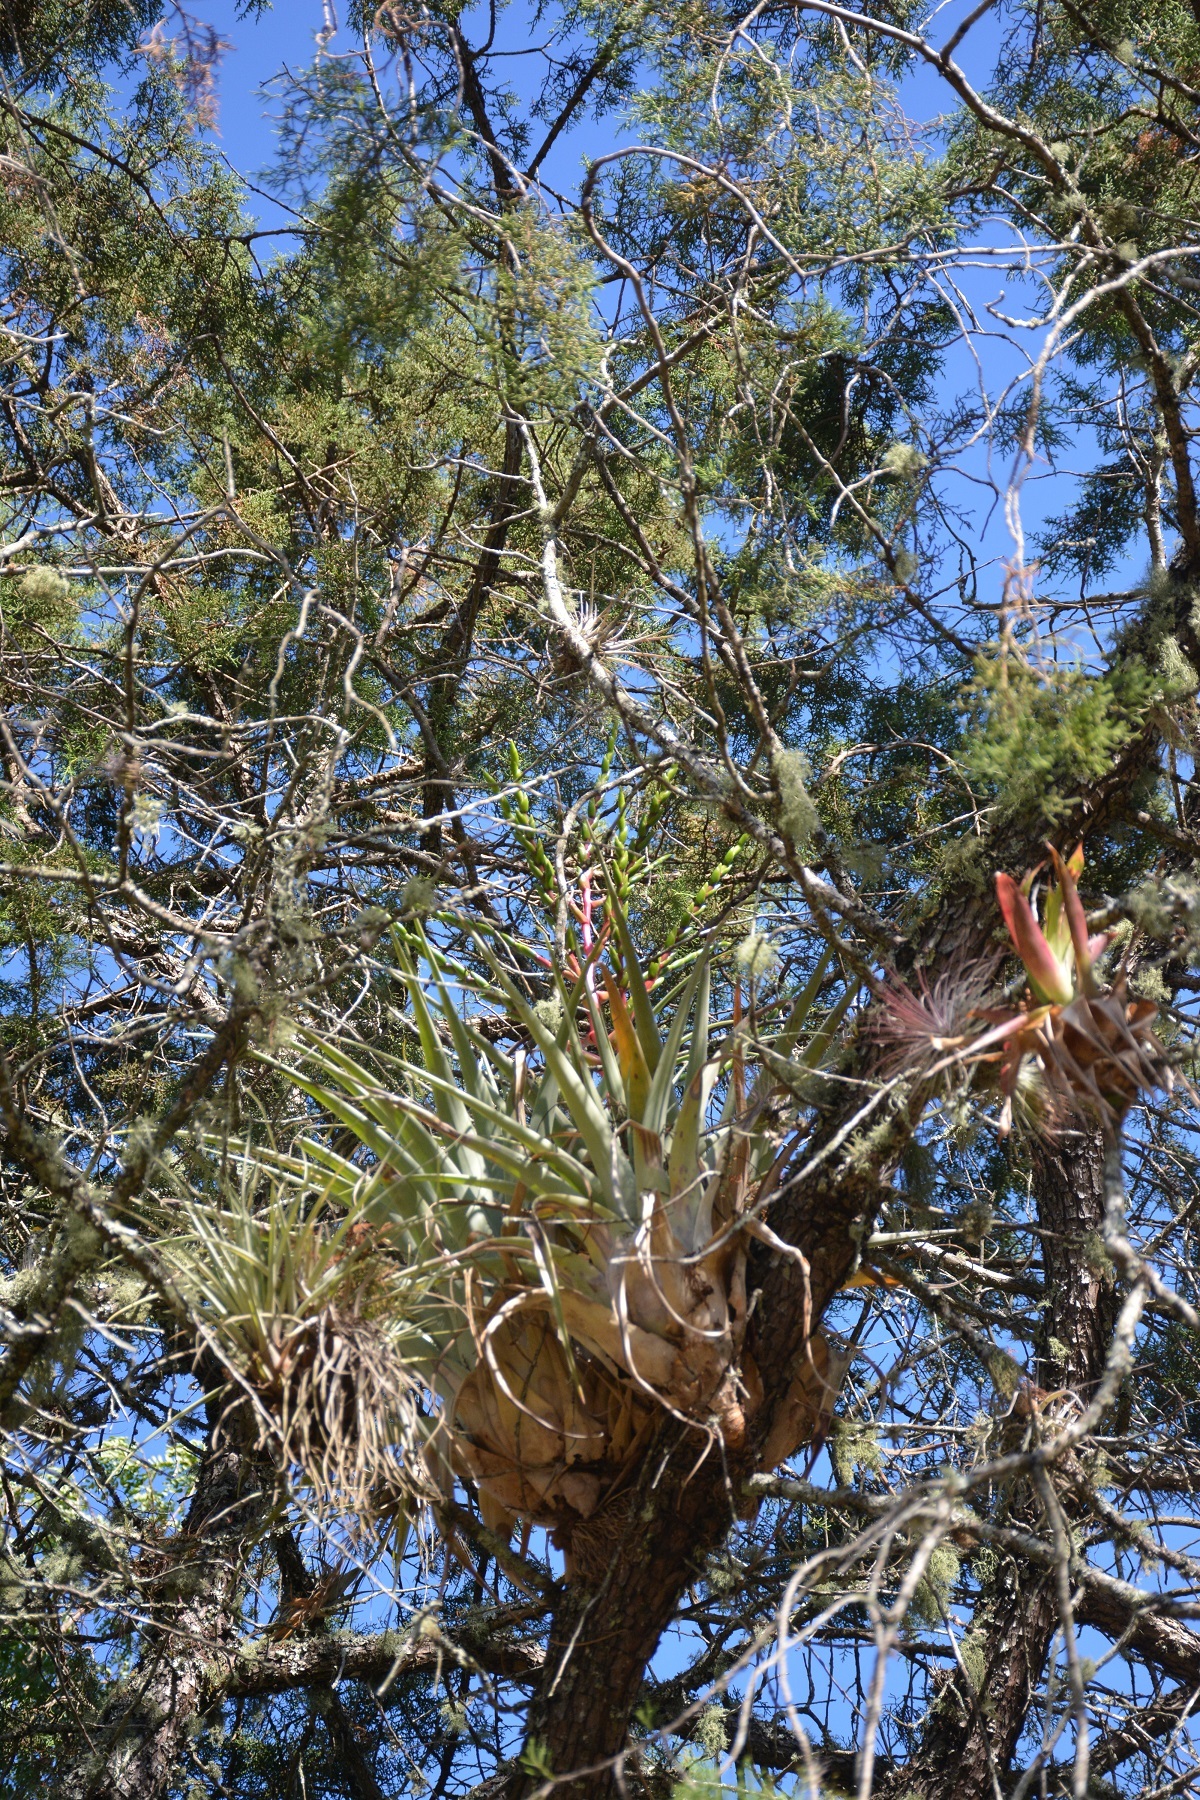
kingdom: Plantae
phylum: Tracheophyta
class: Liliopsida
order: Poales
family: Bromeliaceae
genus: Tillandsia
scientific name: Tillandsia comitanensis
